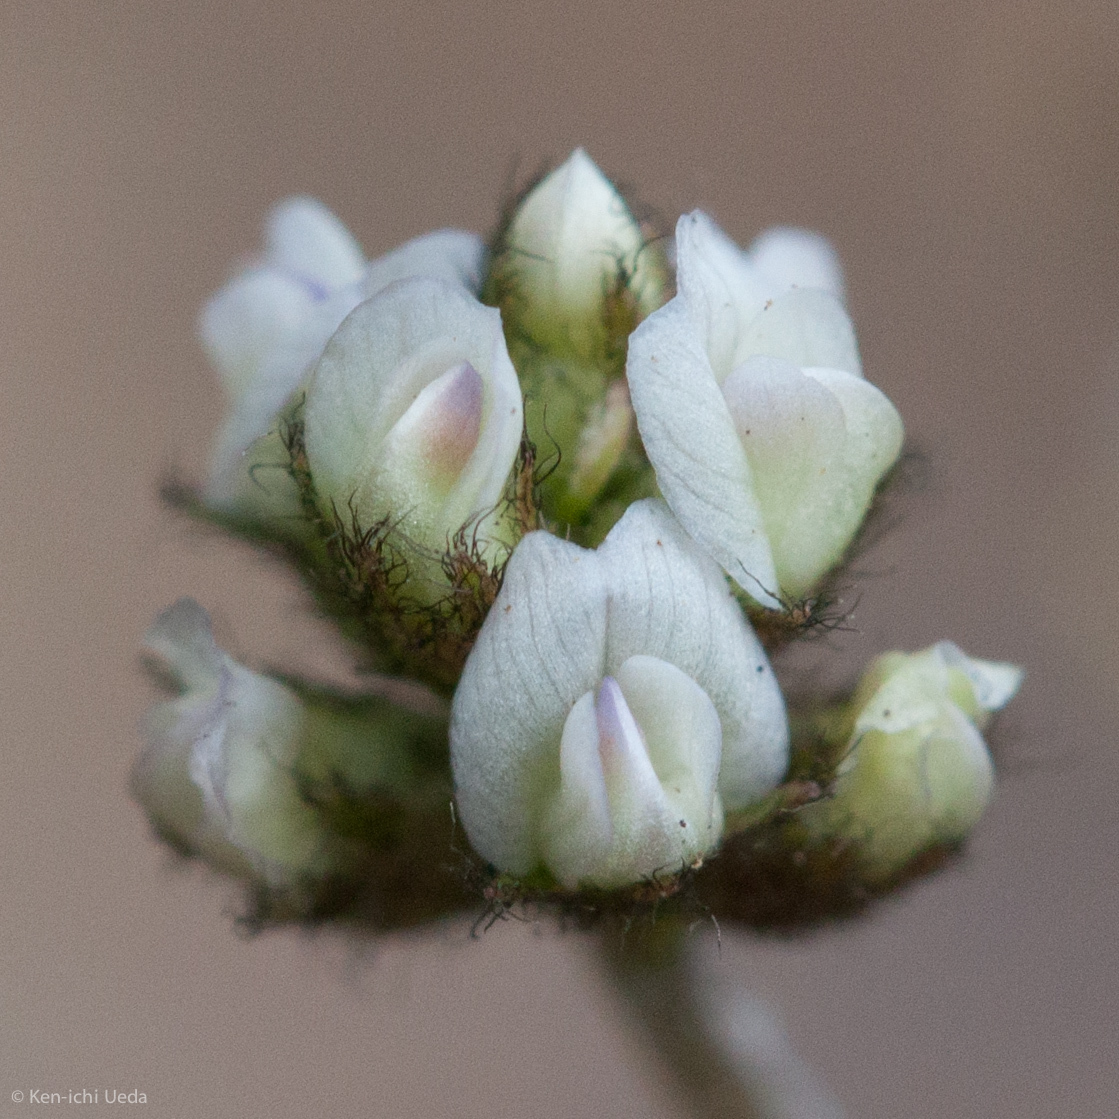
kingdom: Plantae
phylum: Tracheophyta
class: Magnoliopsida
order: Fabales
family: Fabaceae
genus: Astragalus
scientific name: Astragalus gambelianus
